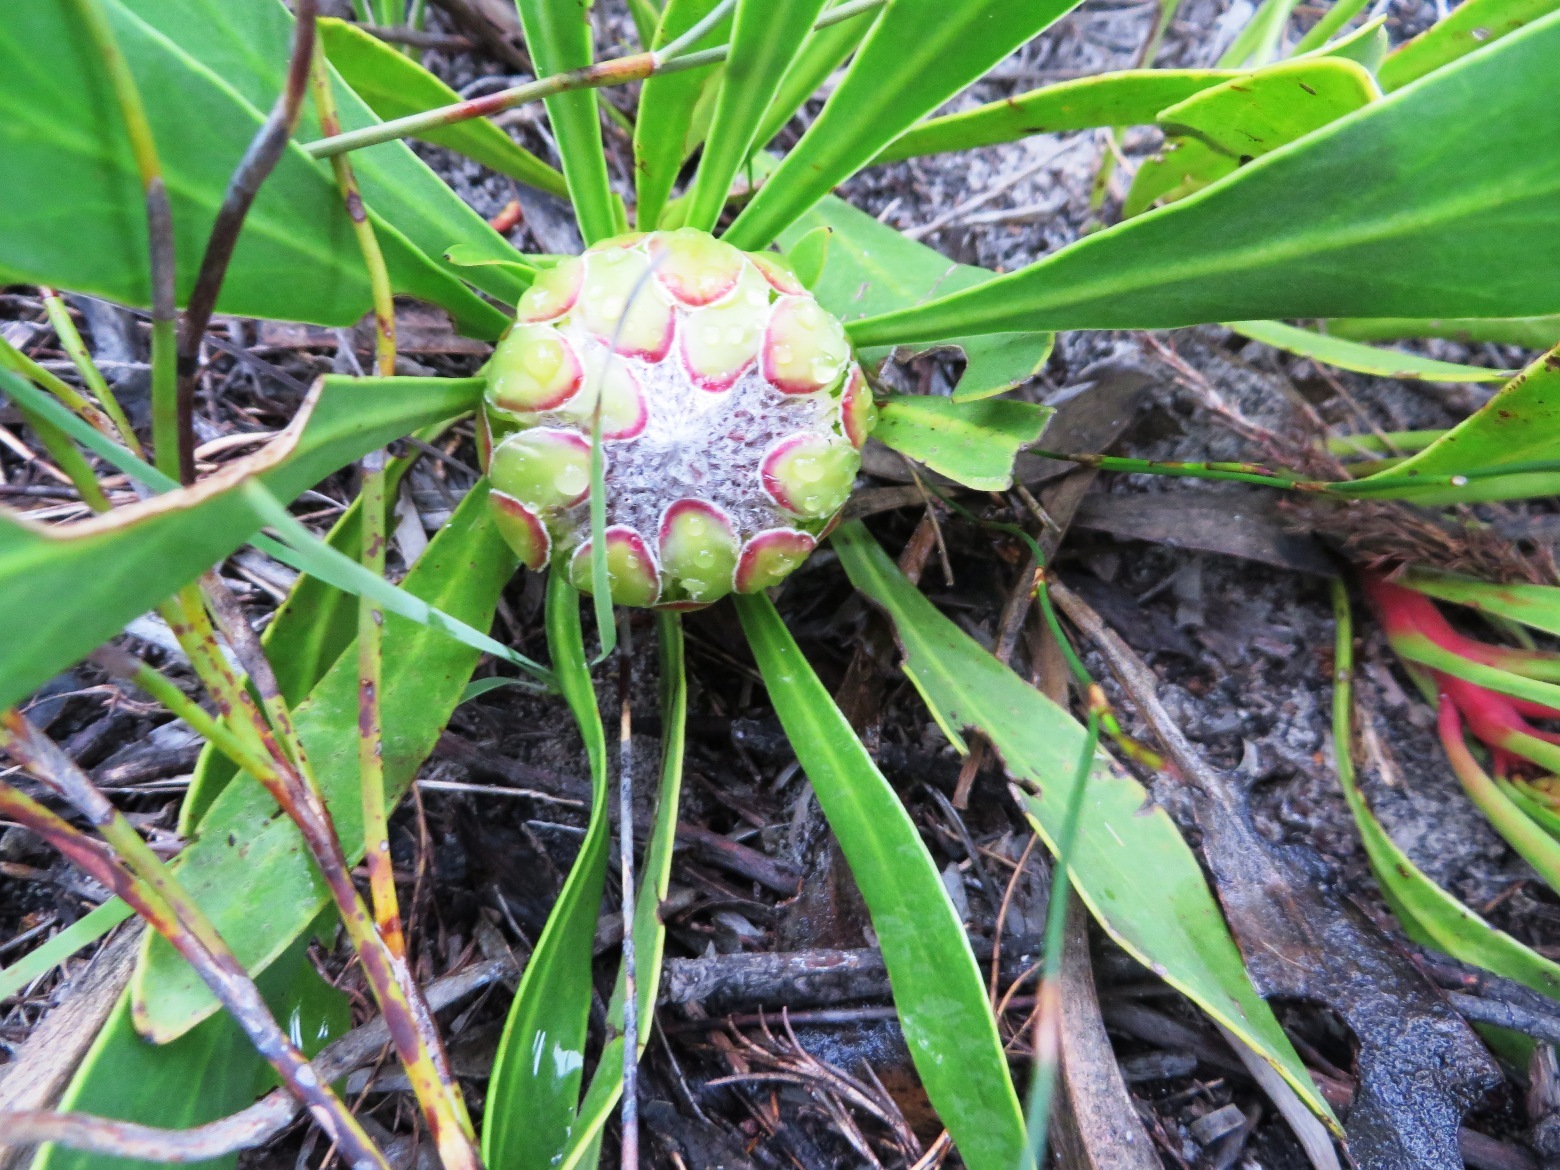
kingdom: Plantae
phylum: Tracheophyta
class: Magnoliopsida
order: Proteales
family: Proteaceae
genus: Protea
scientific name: Protea acaulos
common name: Common ground sugarbush
